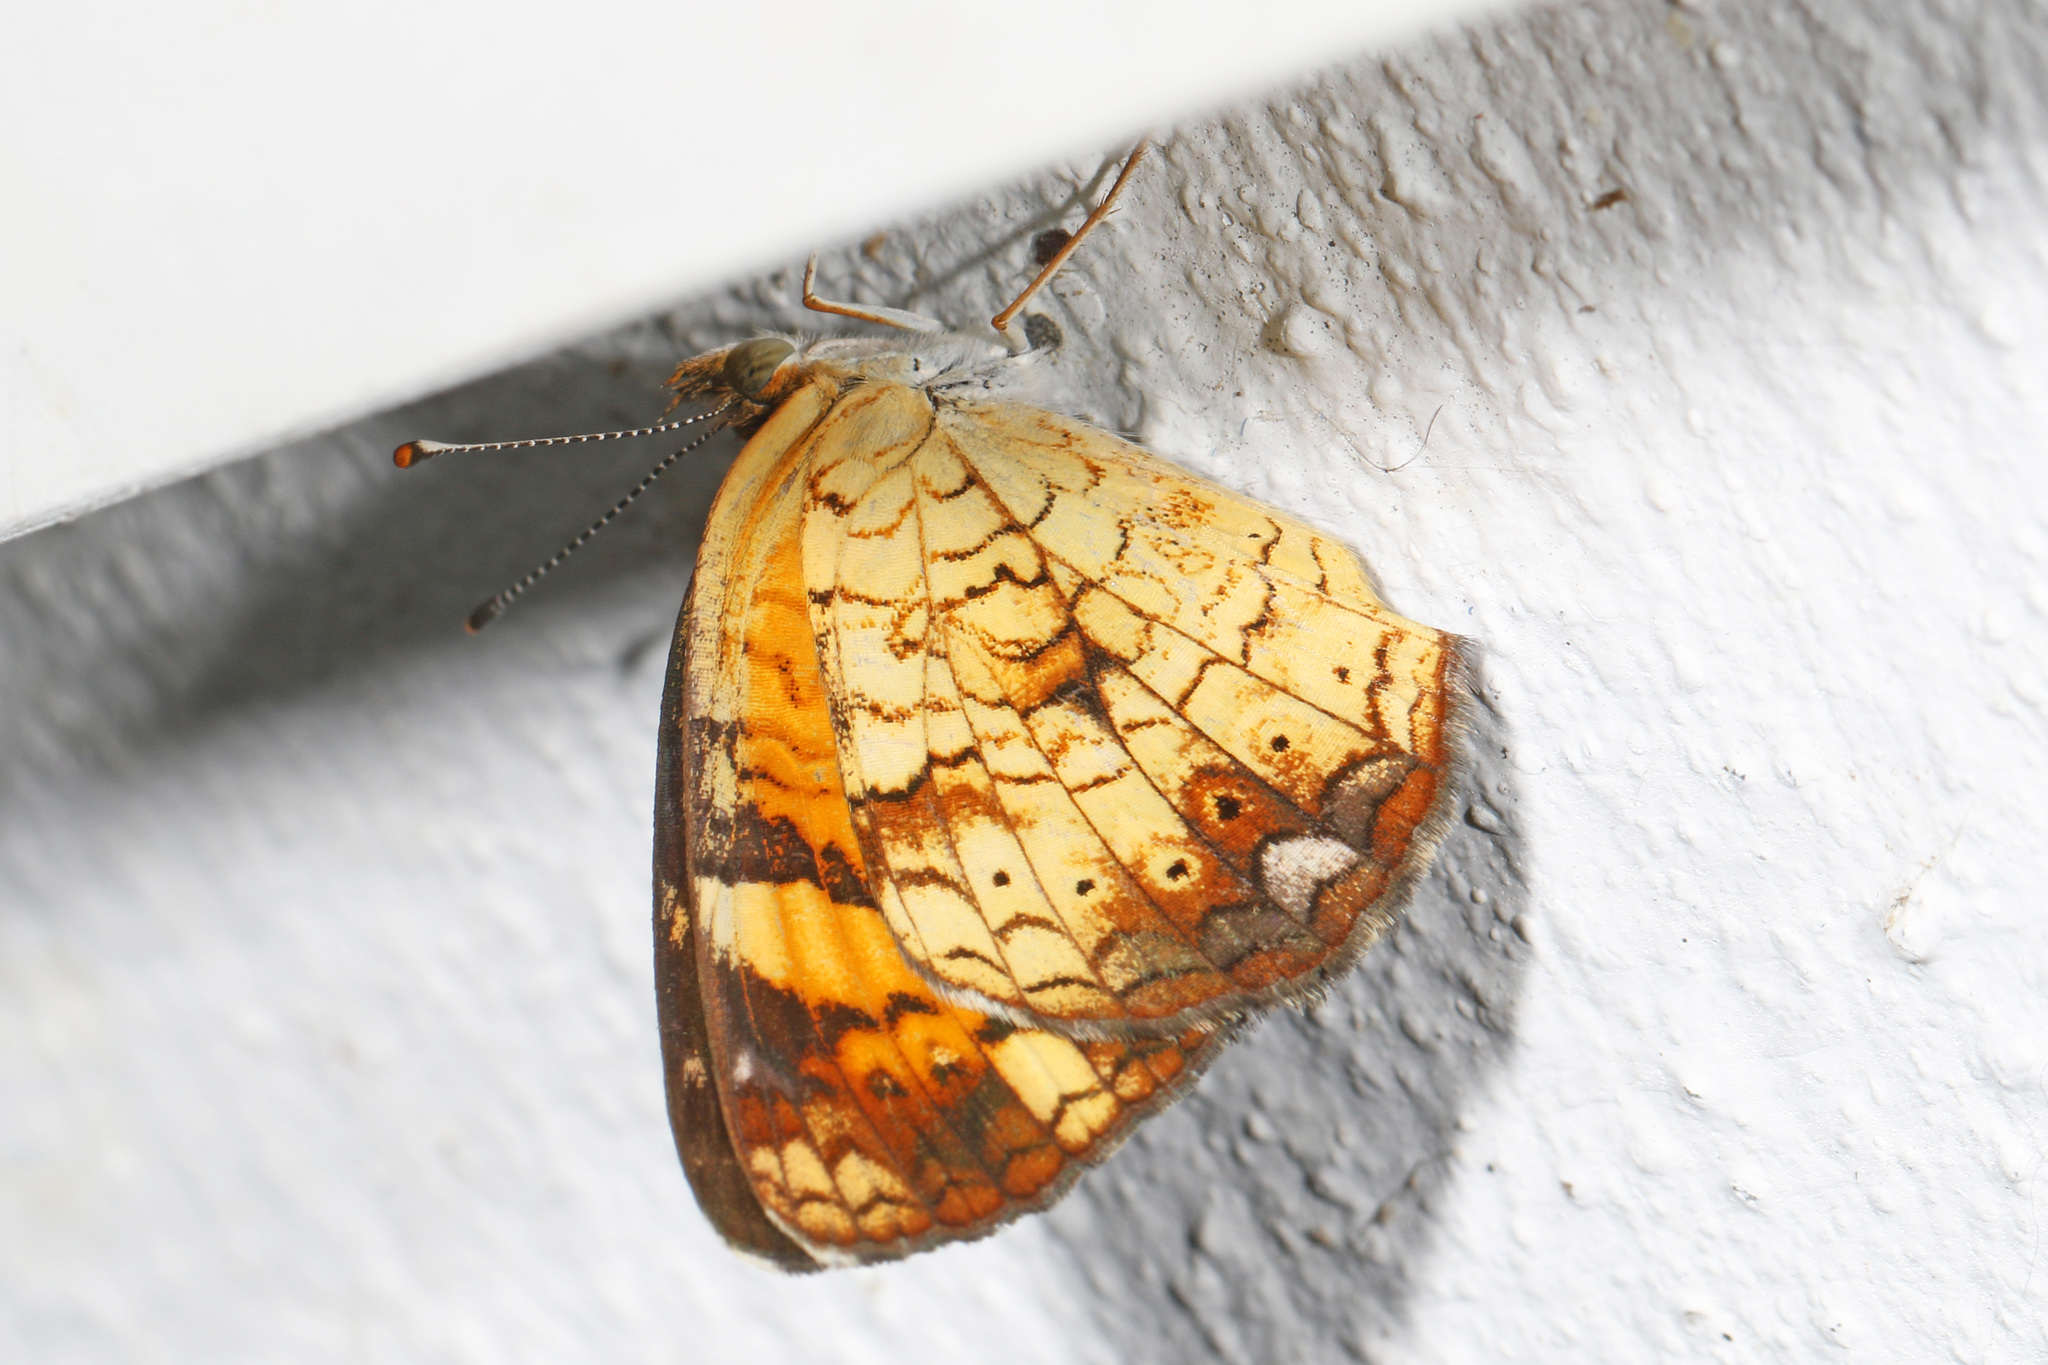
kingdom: Animalia
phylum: Arthropoda
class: Insecta
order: Lepidoptera
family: Nymphalidae
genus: Phyciodes
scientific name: Phyciodes tharos
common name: Pearl crescent
